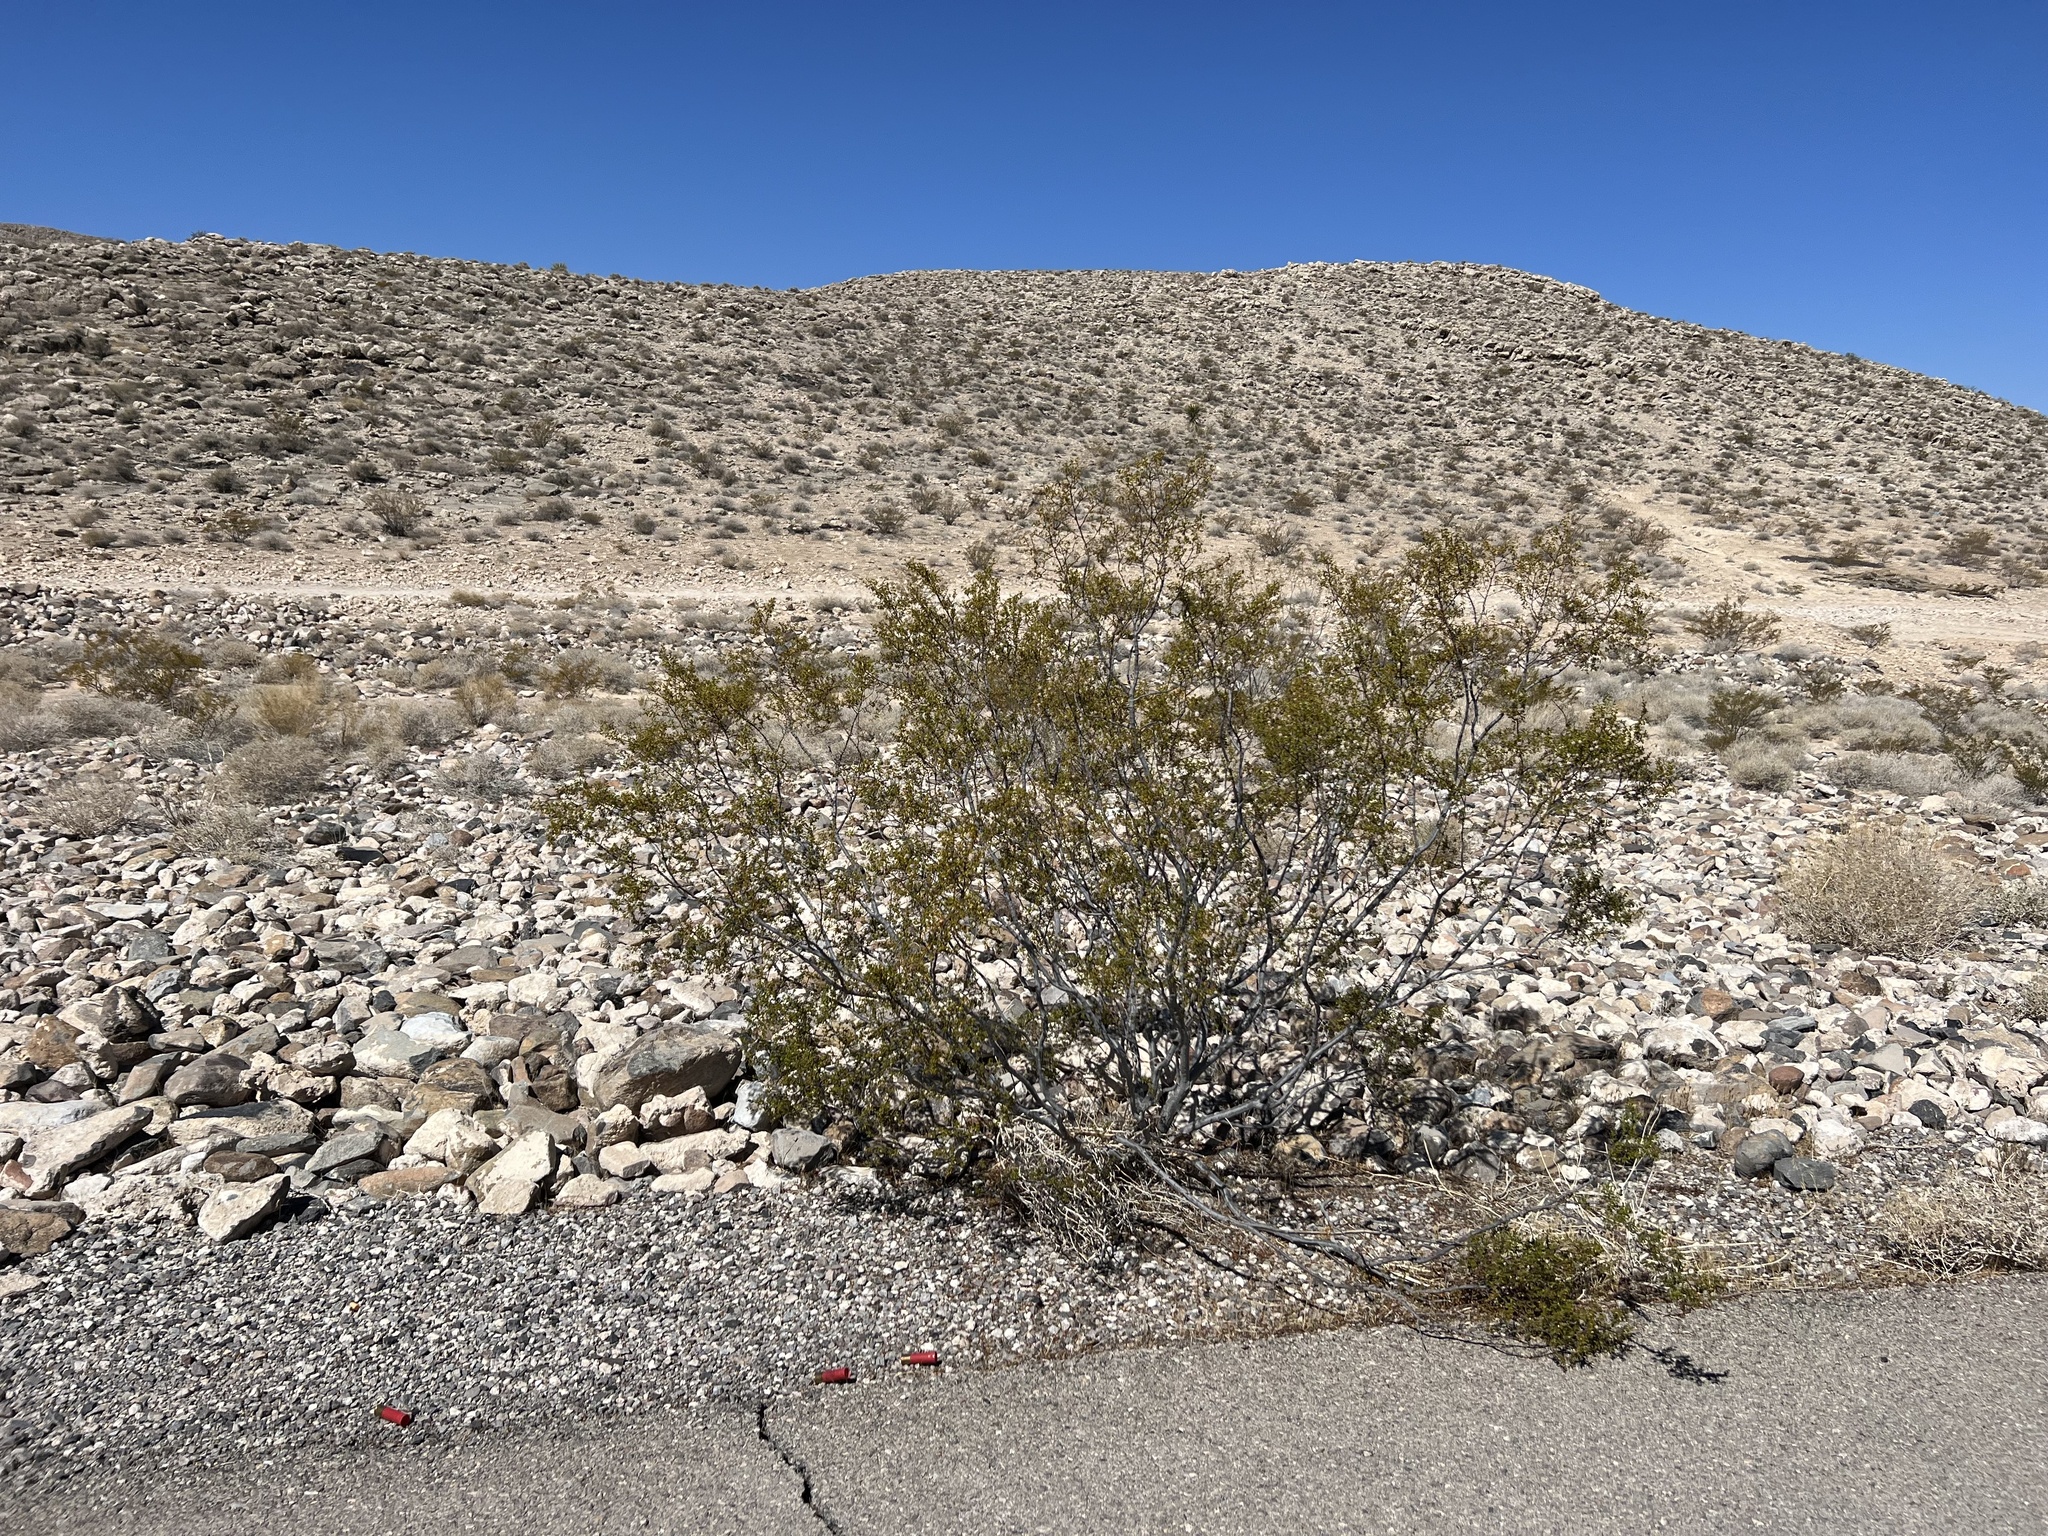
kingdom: Plantae
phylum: Tracheophyta
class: Magnoliopsida
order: Zygophyllales
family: Zygophyllaceae
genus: Larrea
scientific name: Larrea tridentata
